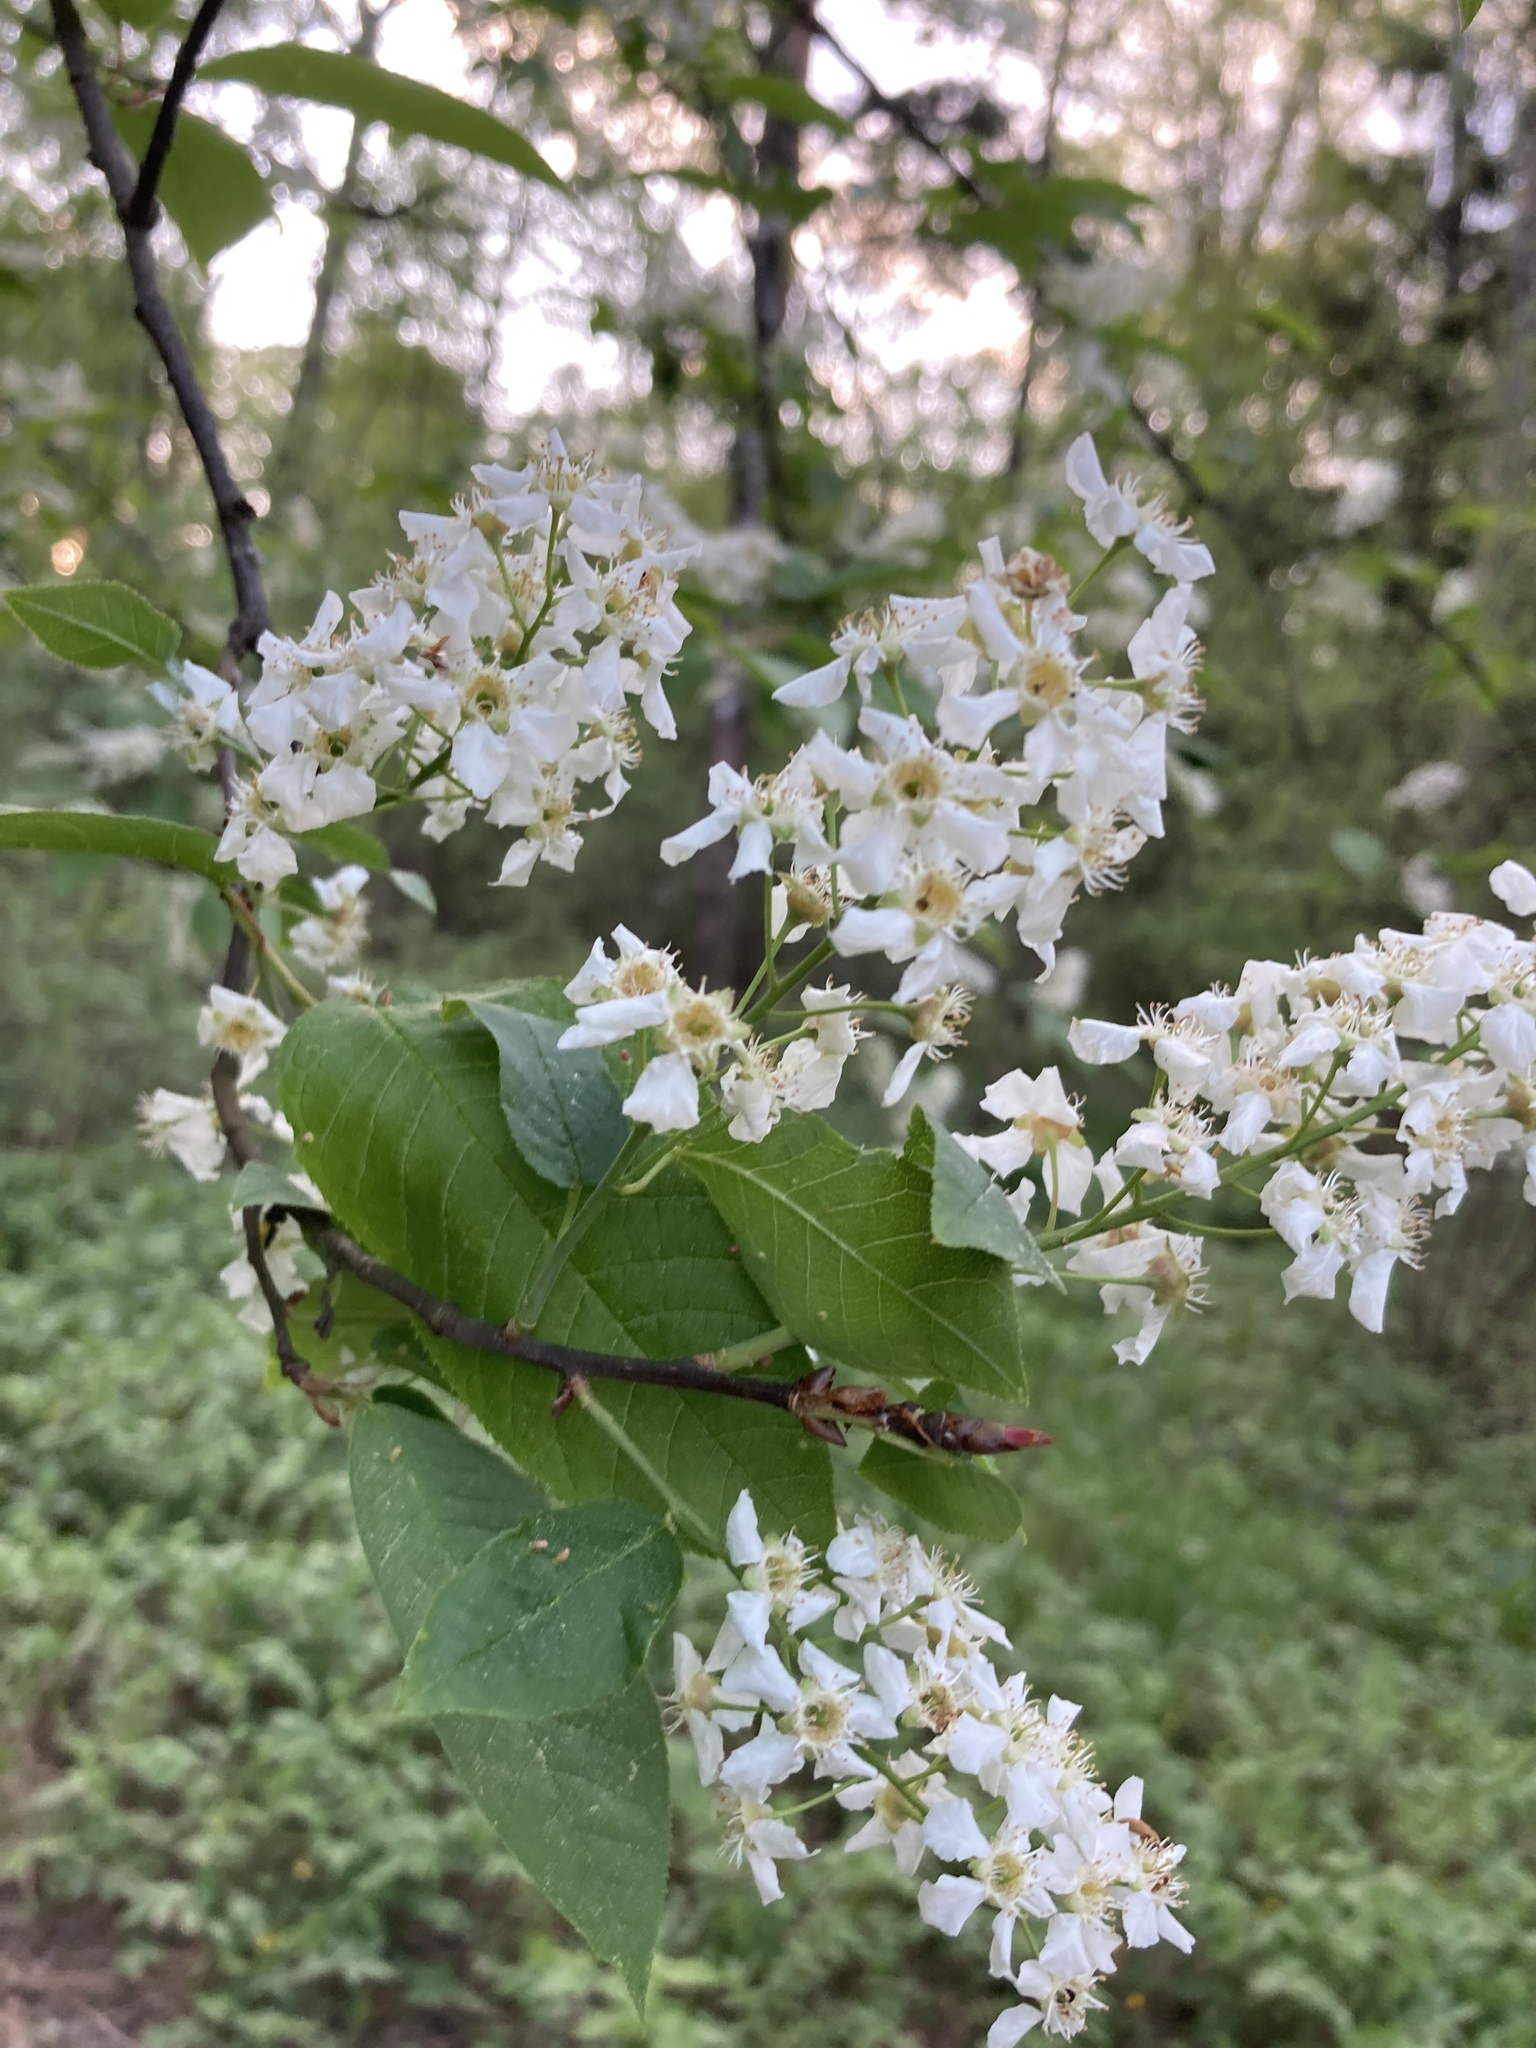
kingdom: Plantae
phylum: Tracheophyta
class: Magnoliopsida
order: Rosales
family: Rosaceae
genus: Prunus
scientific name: Prunus padus
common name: Bird cherry
